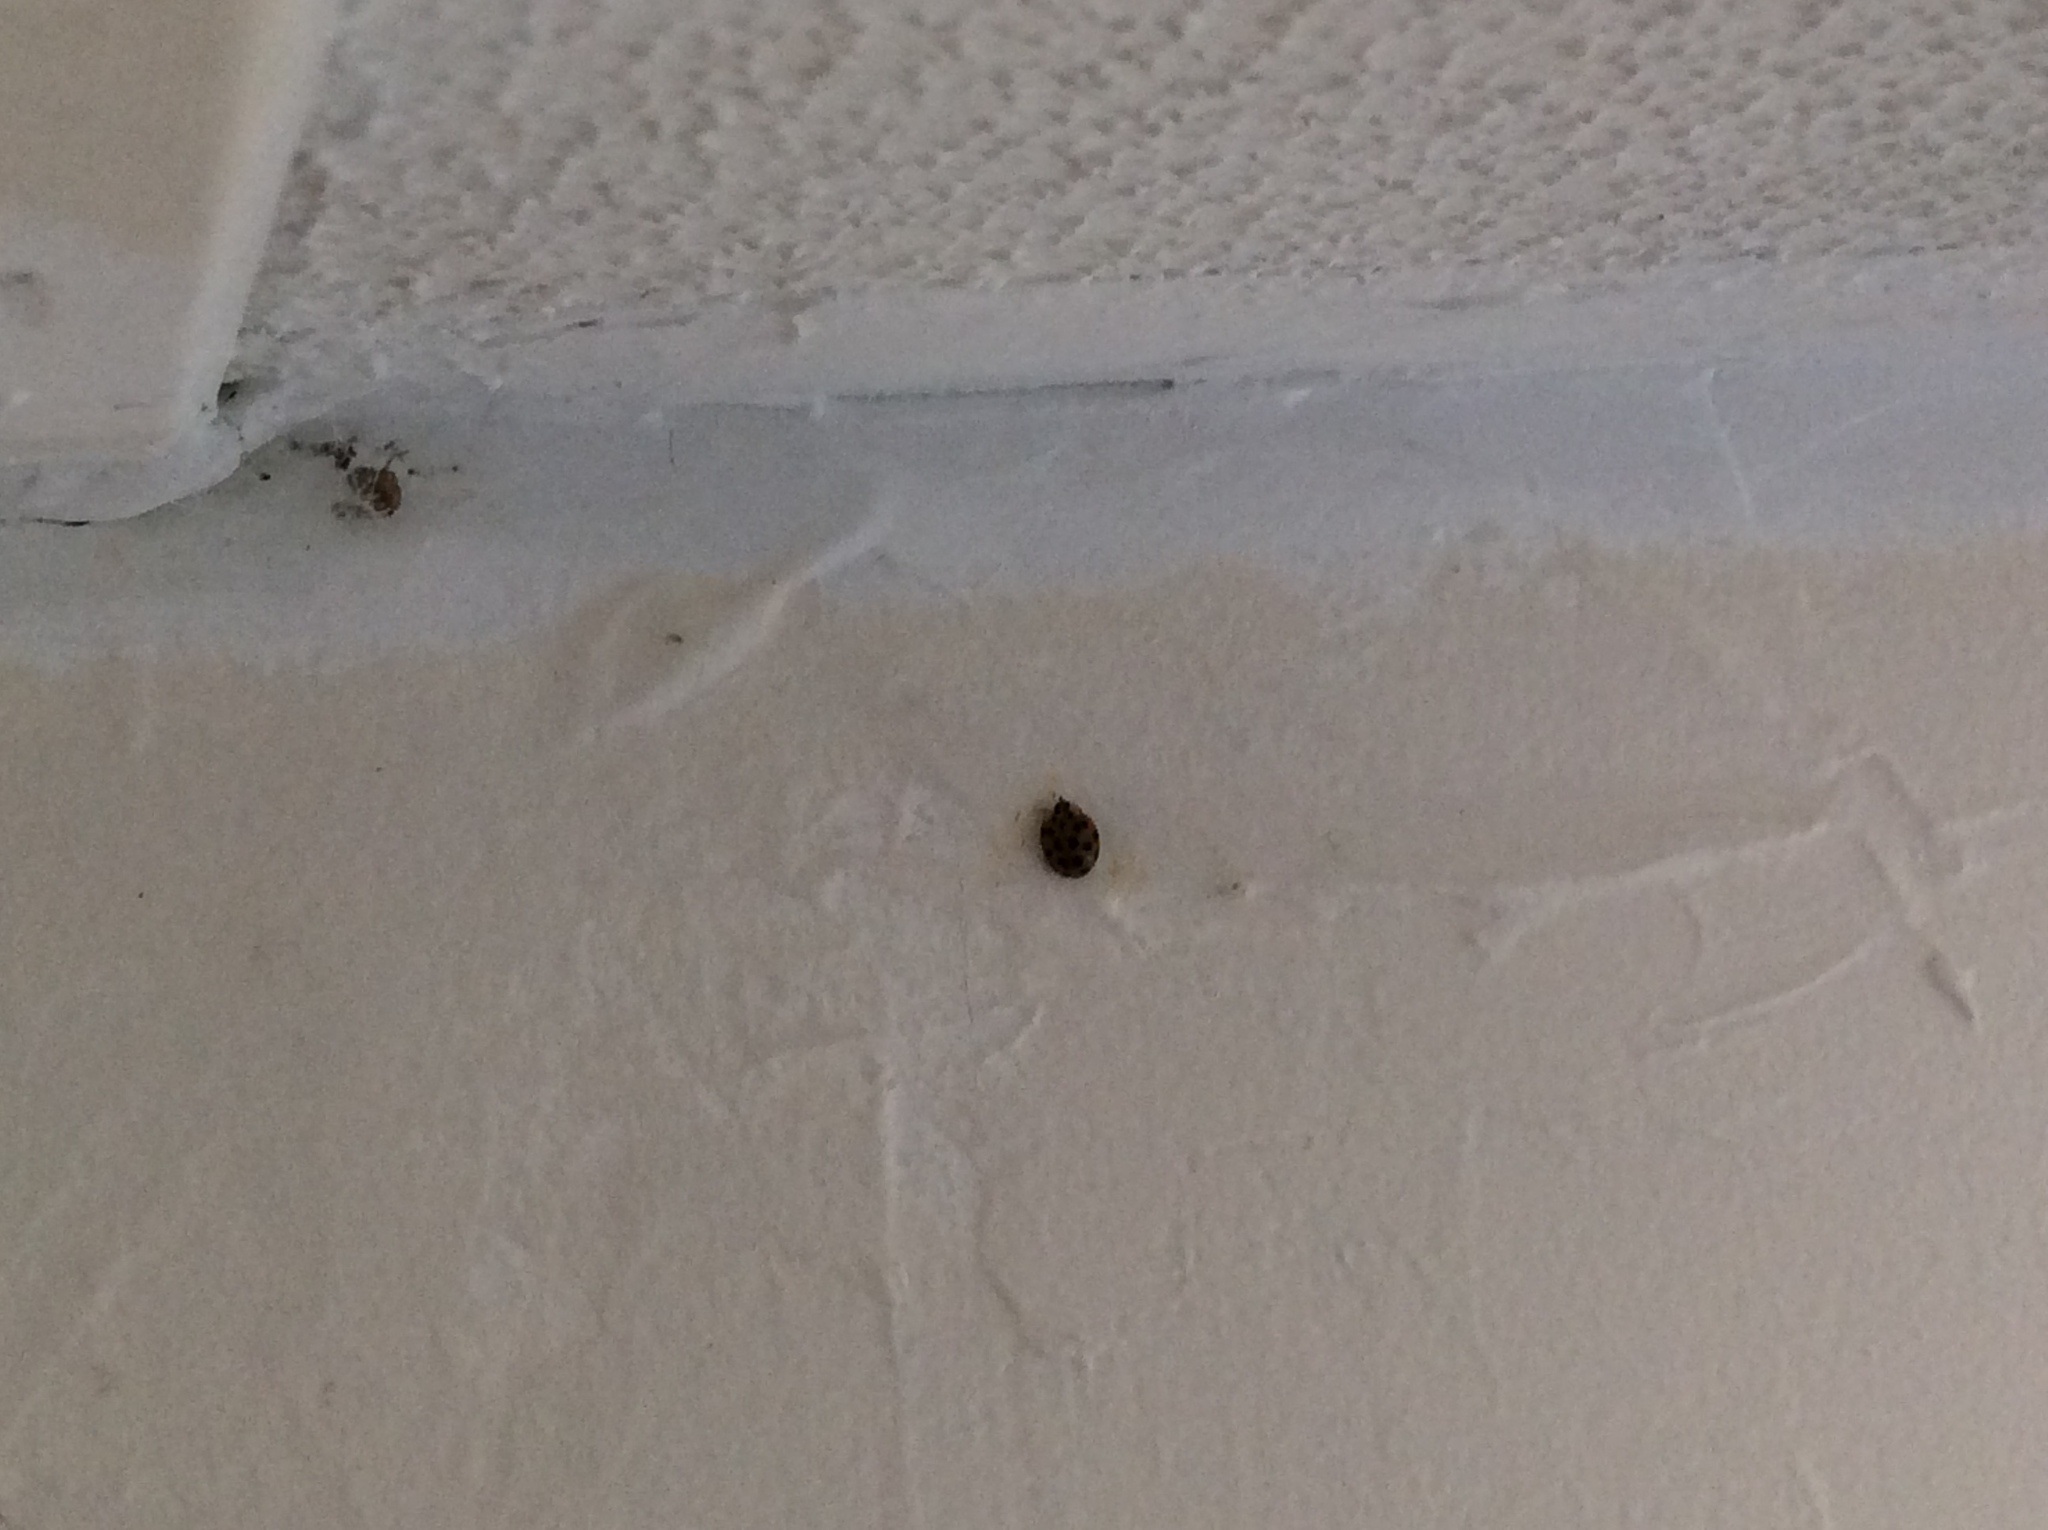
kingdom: Animalia
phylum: Arthropoda
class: Insecta
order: Coleoptera
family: Coccinellidae
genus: Harmonia
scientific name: Harmonia axyridis
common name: Harlequin ladybird
